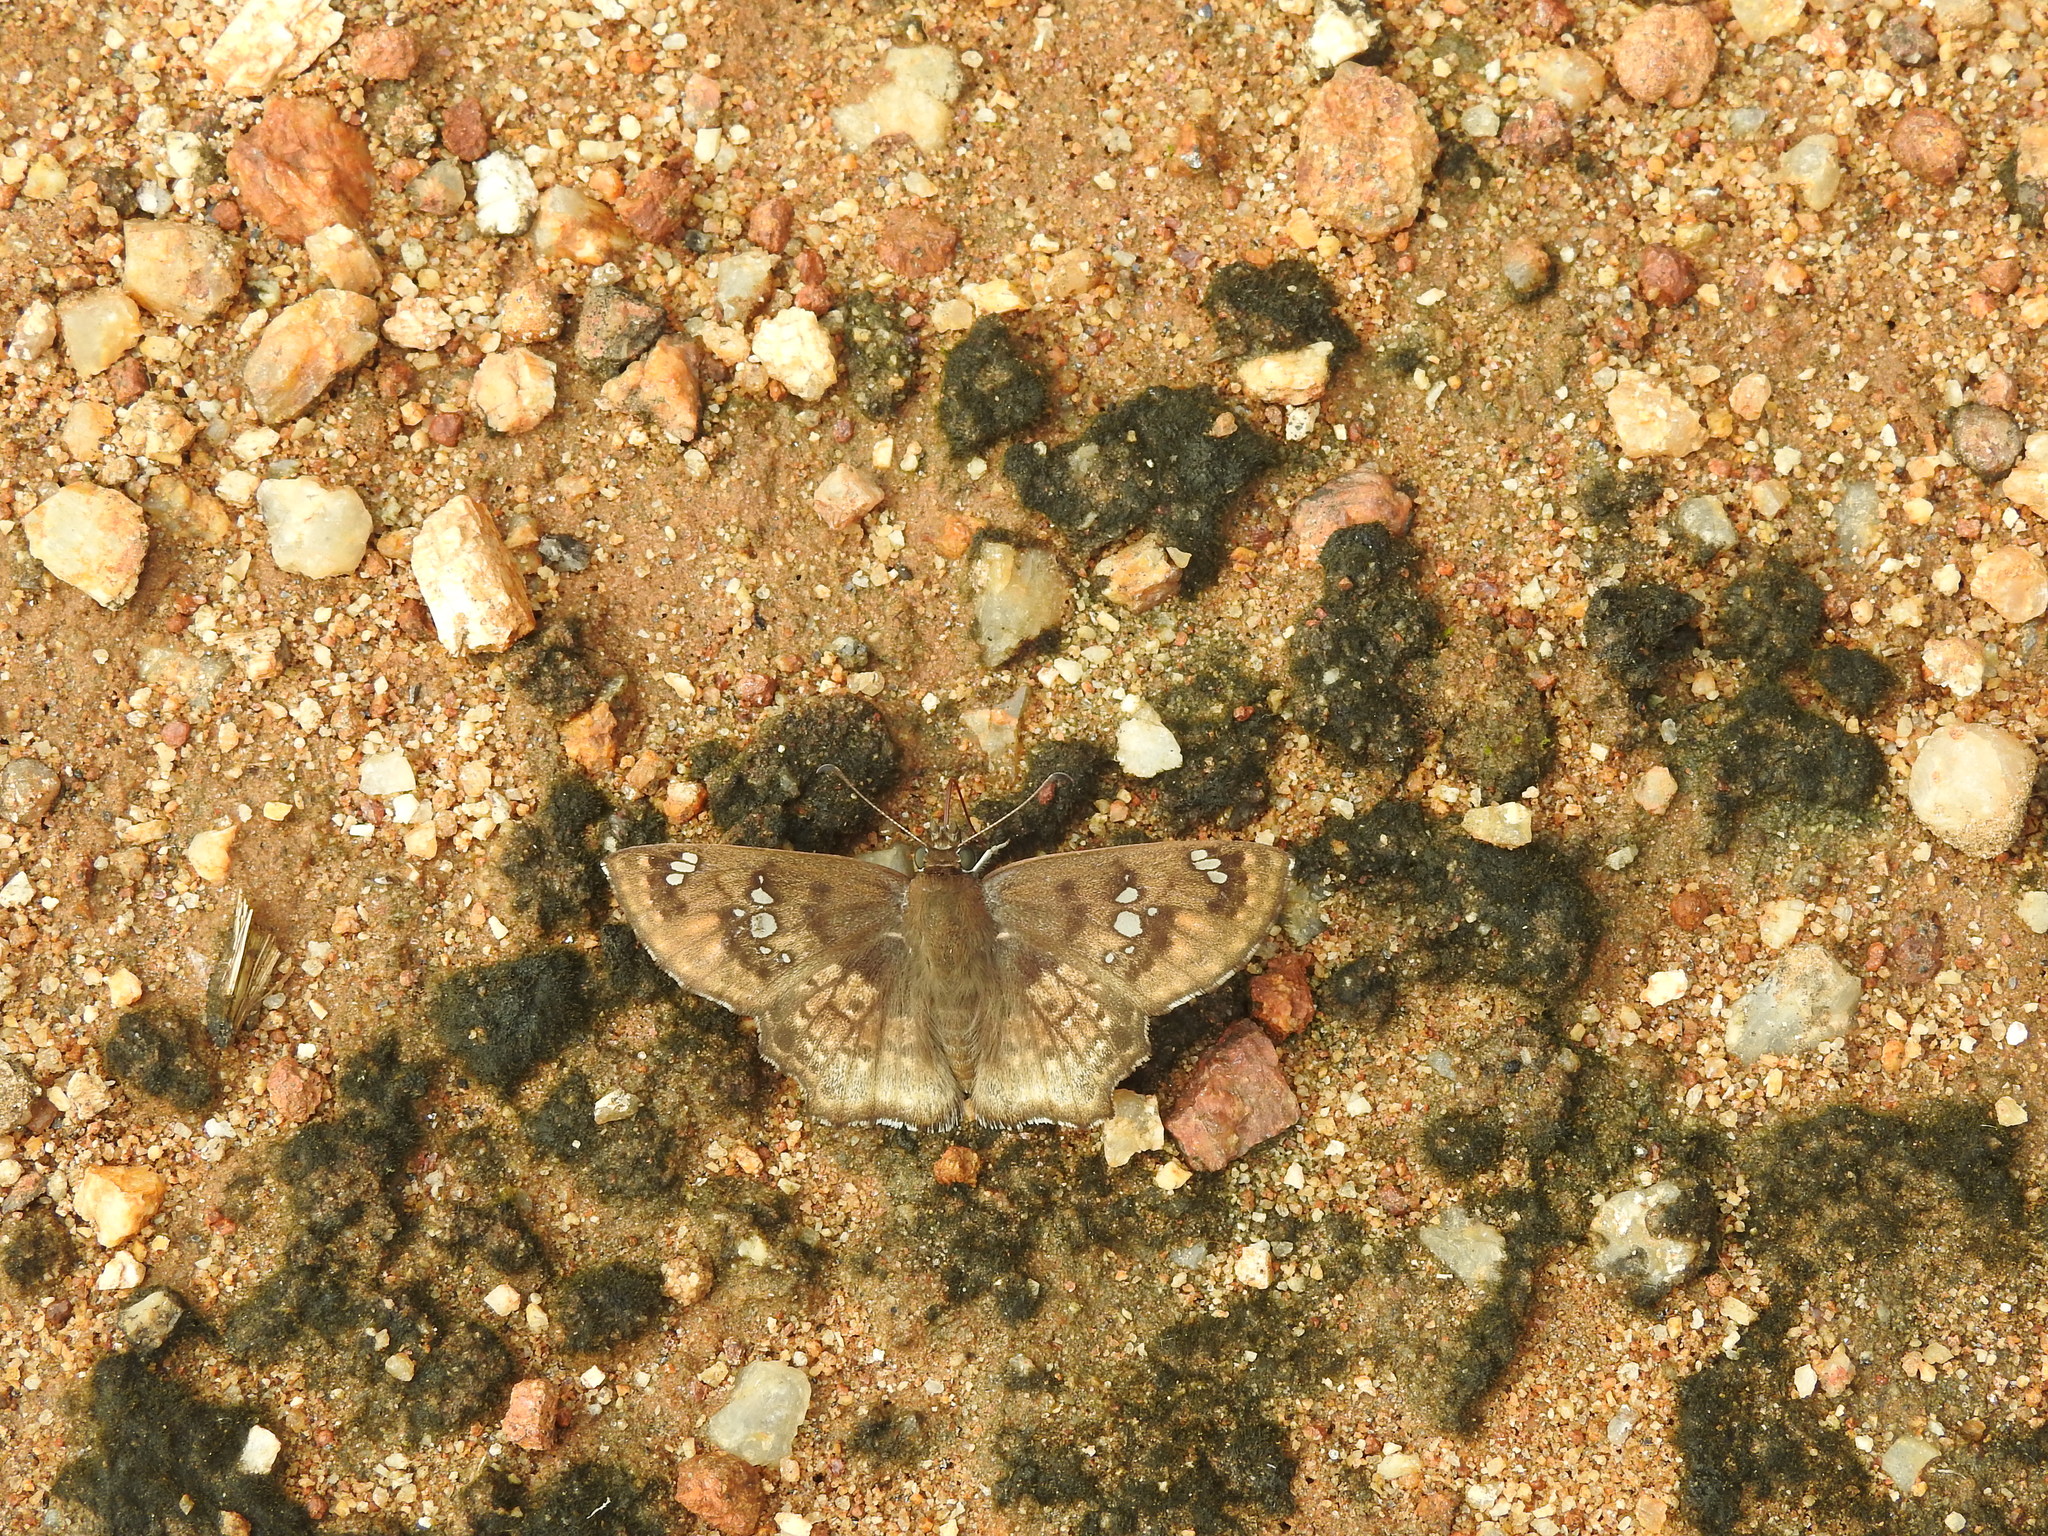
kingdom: Animalia
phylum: Arthropoda
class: Insecta
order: Lepidoptera
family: Hesperiidae
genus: Caprona
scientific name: Caprona ransonnettii
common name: Golden angle
